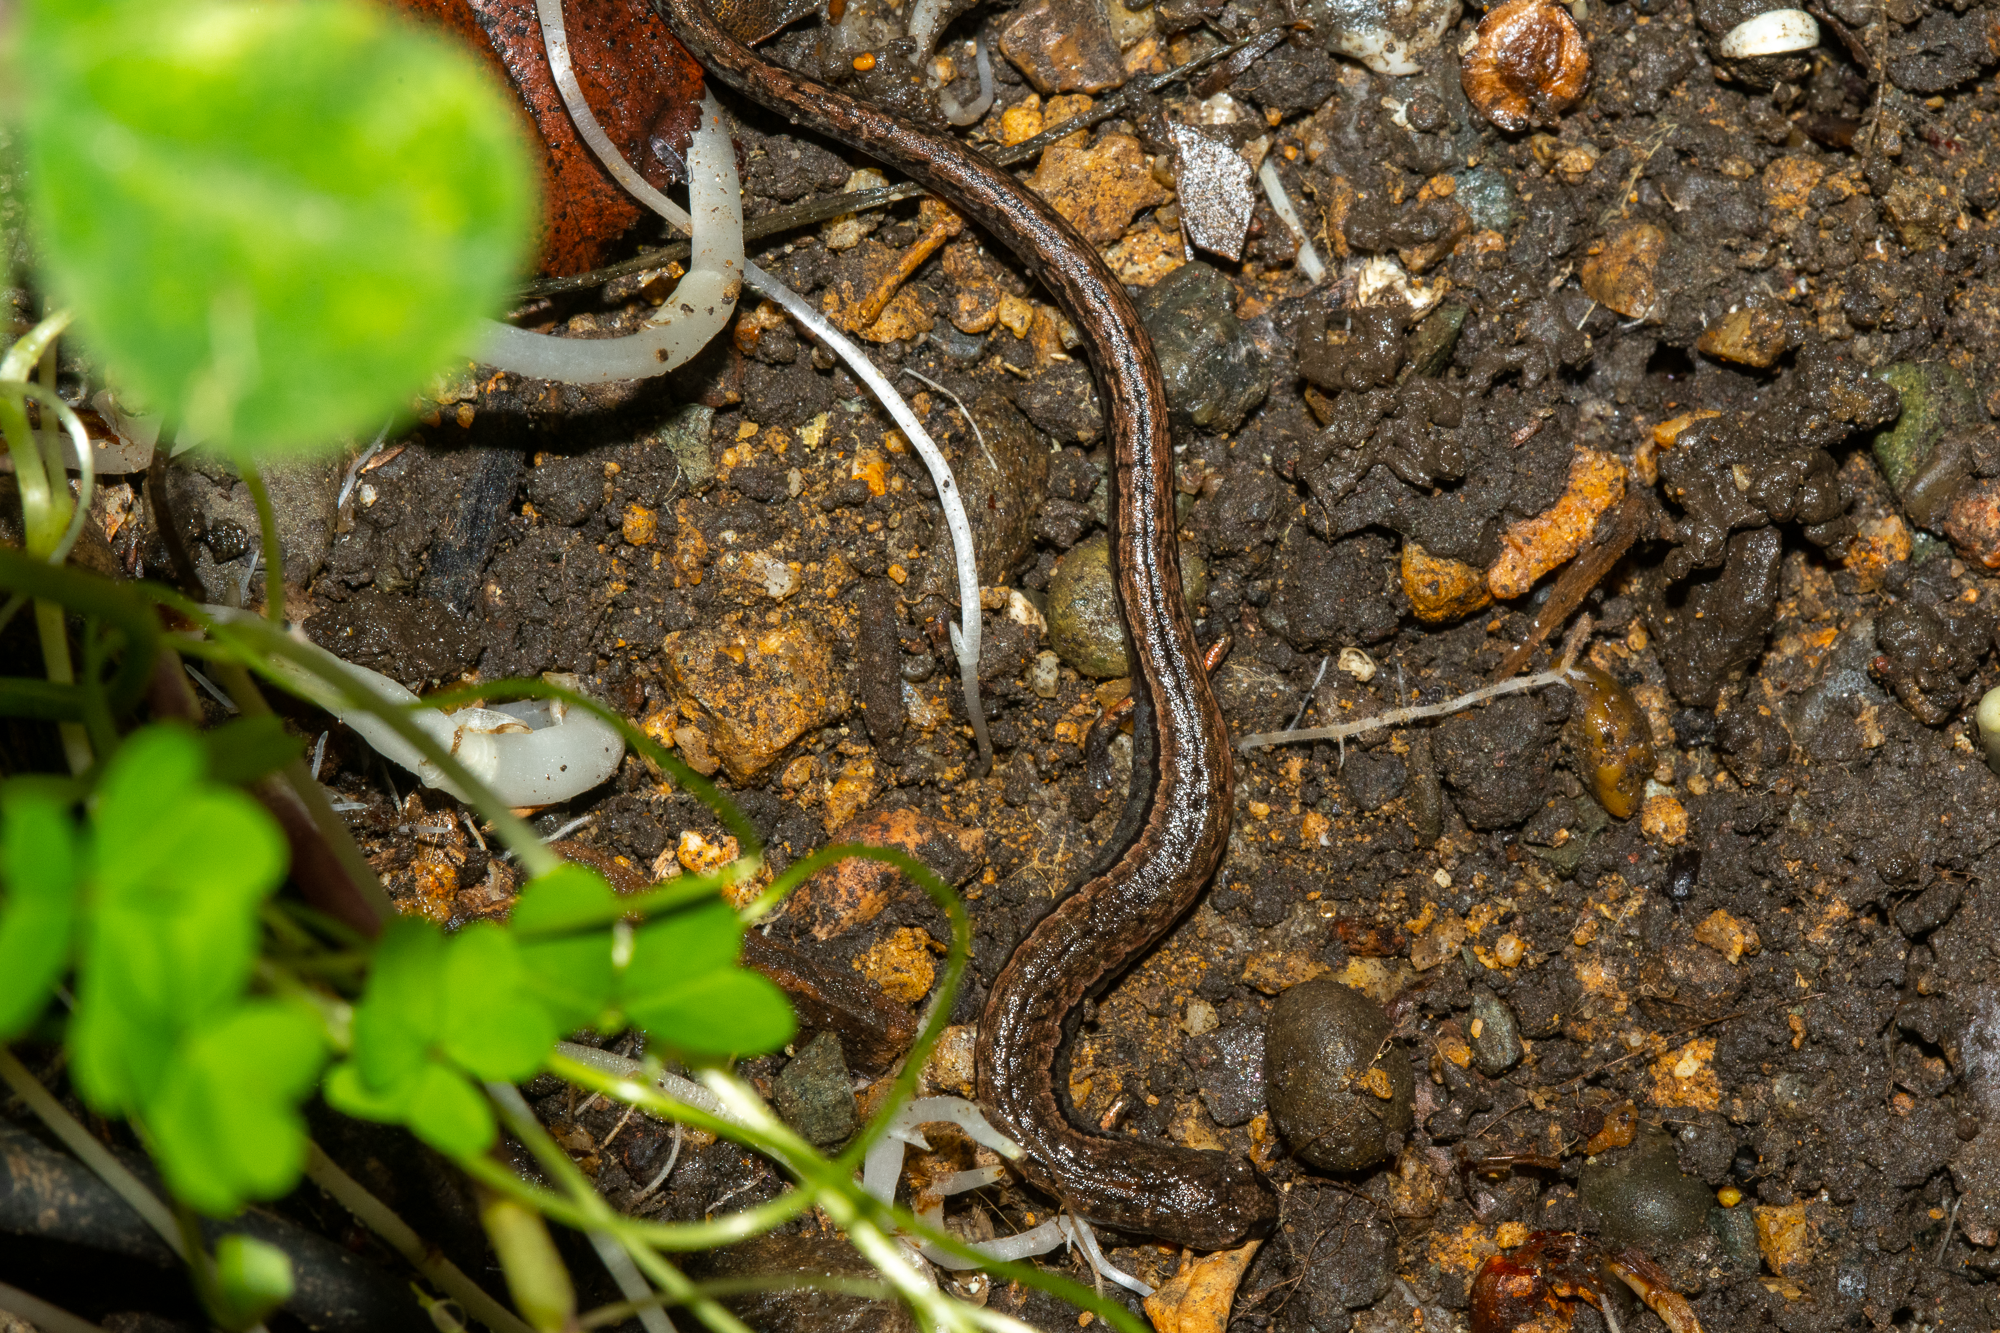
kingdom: Animalia
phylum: Chordata
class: Amphibia
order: Caudata
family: Plethodontidae
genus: Batrachoseps
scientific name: Batrachoseps attenuatus
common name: California slender salamander
